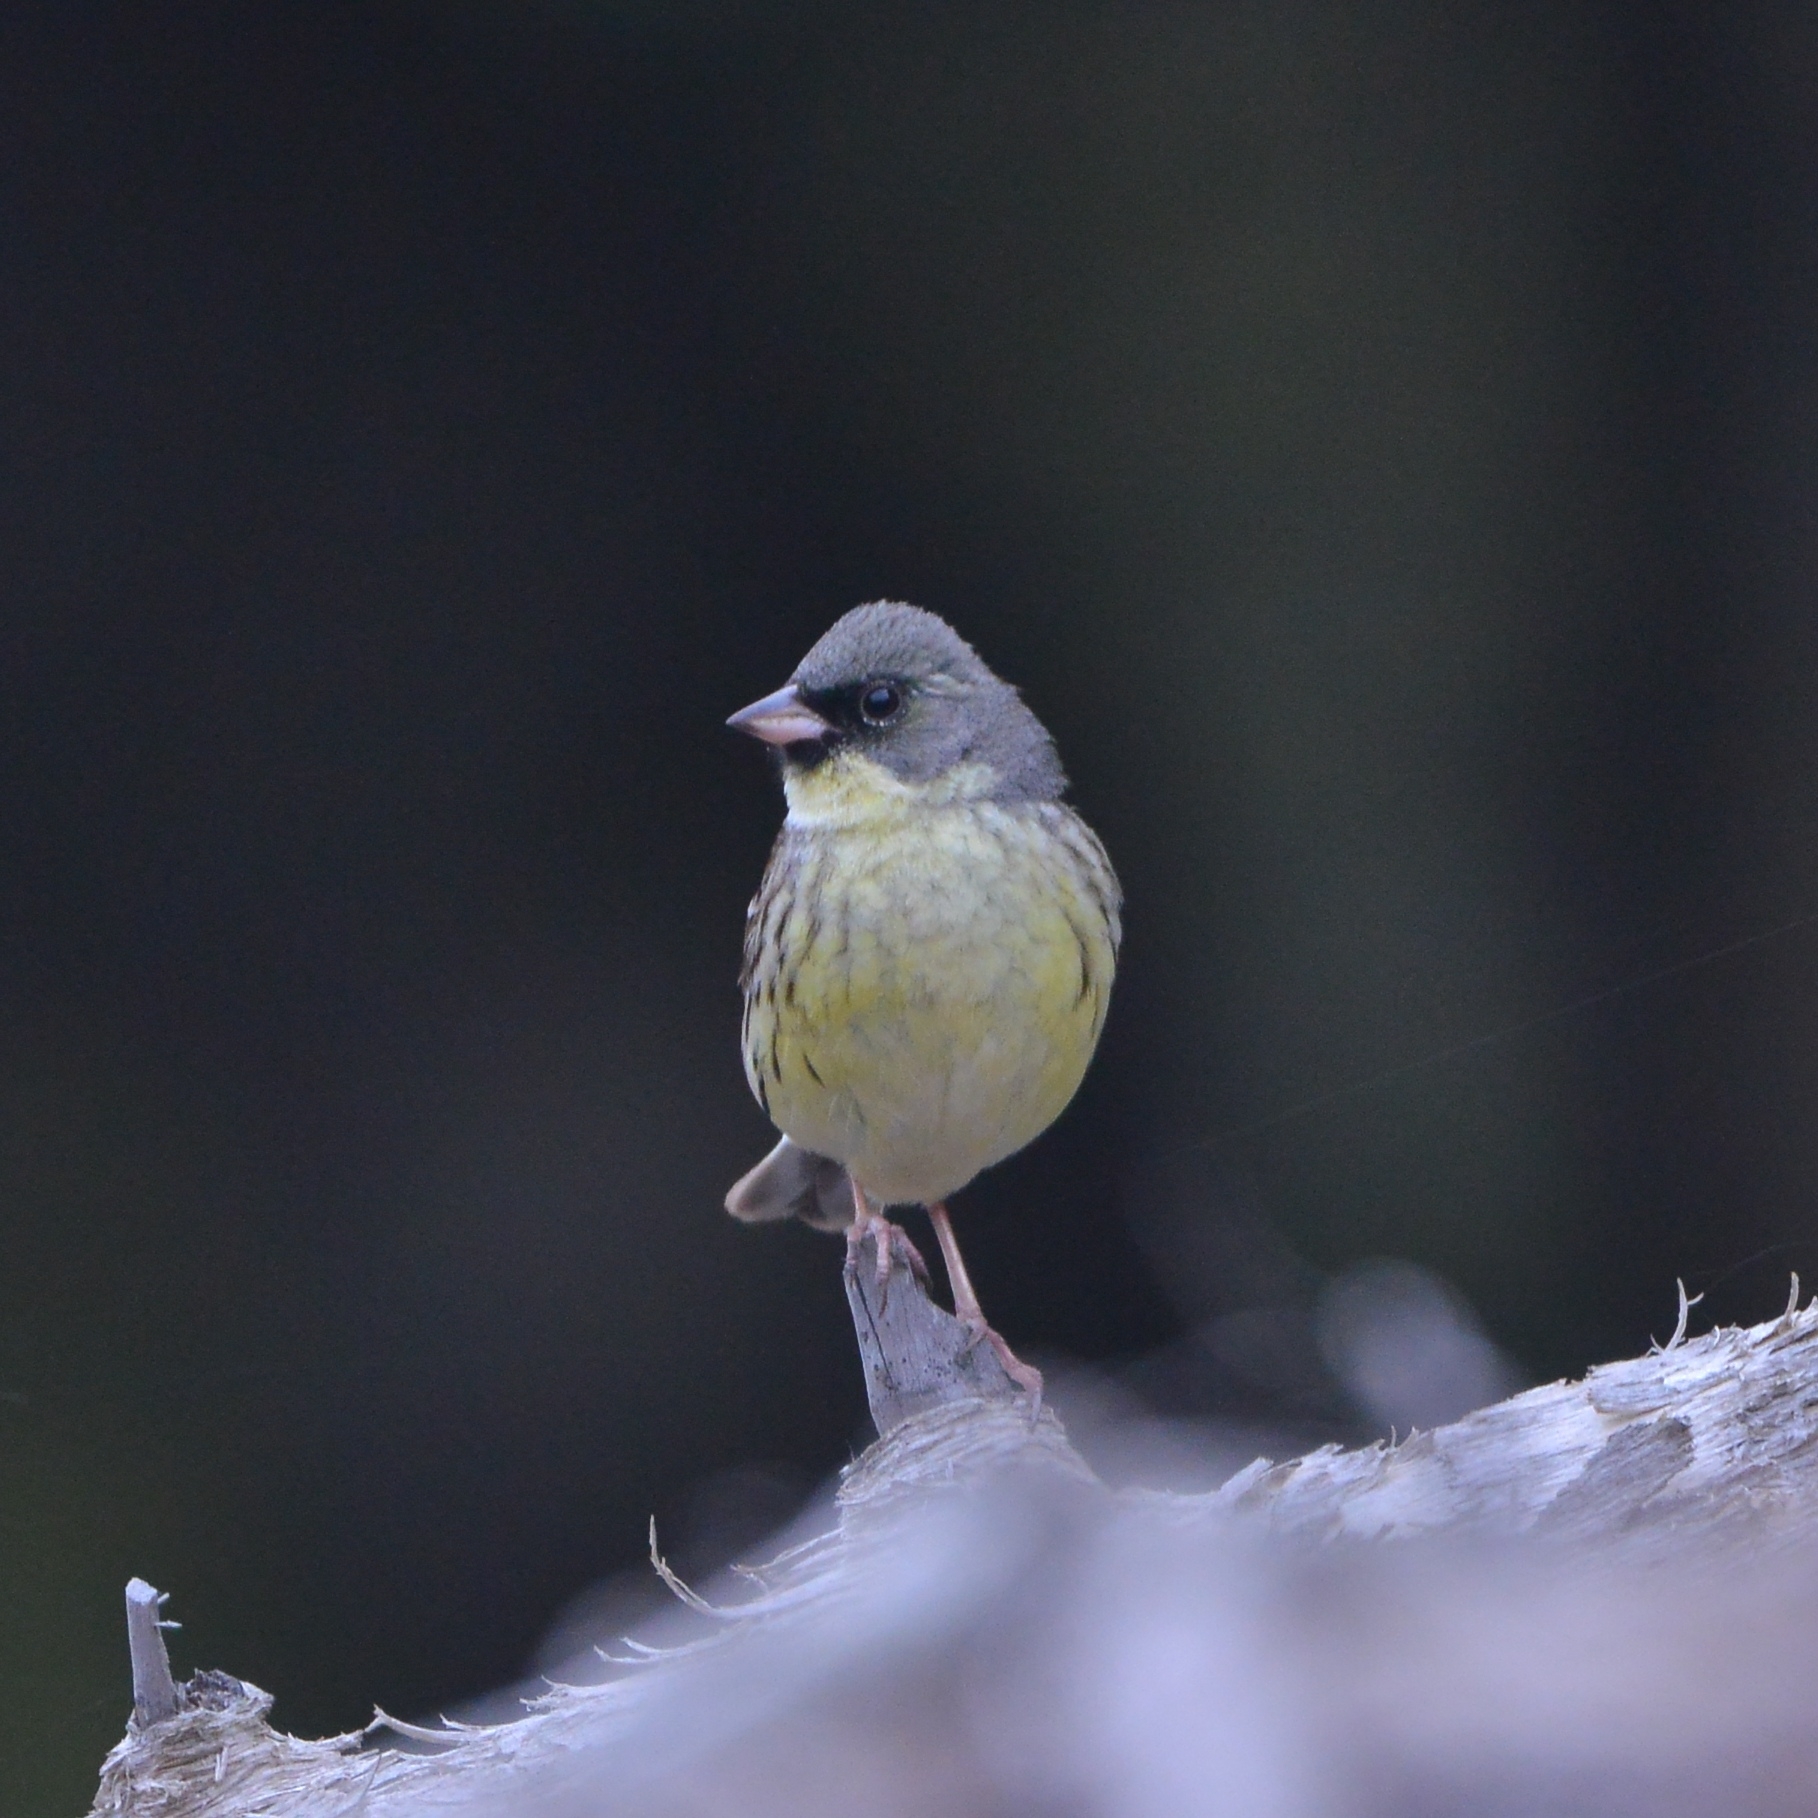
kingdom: Animalia
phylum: Chordata
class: Aves
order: Passeriformes
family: Emberizidae
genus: Emberiza
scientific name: Emberiza personata
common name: Masked bunting
